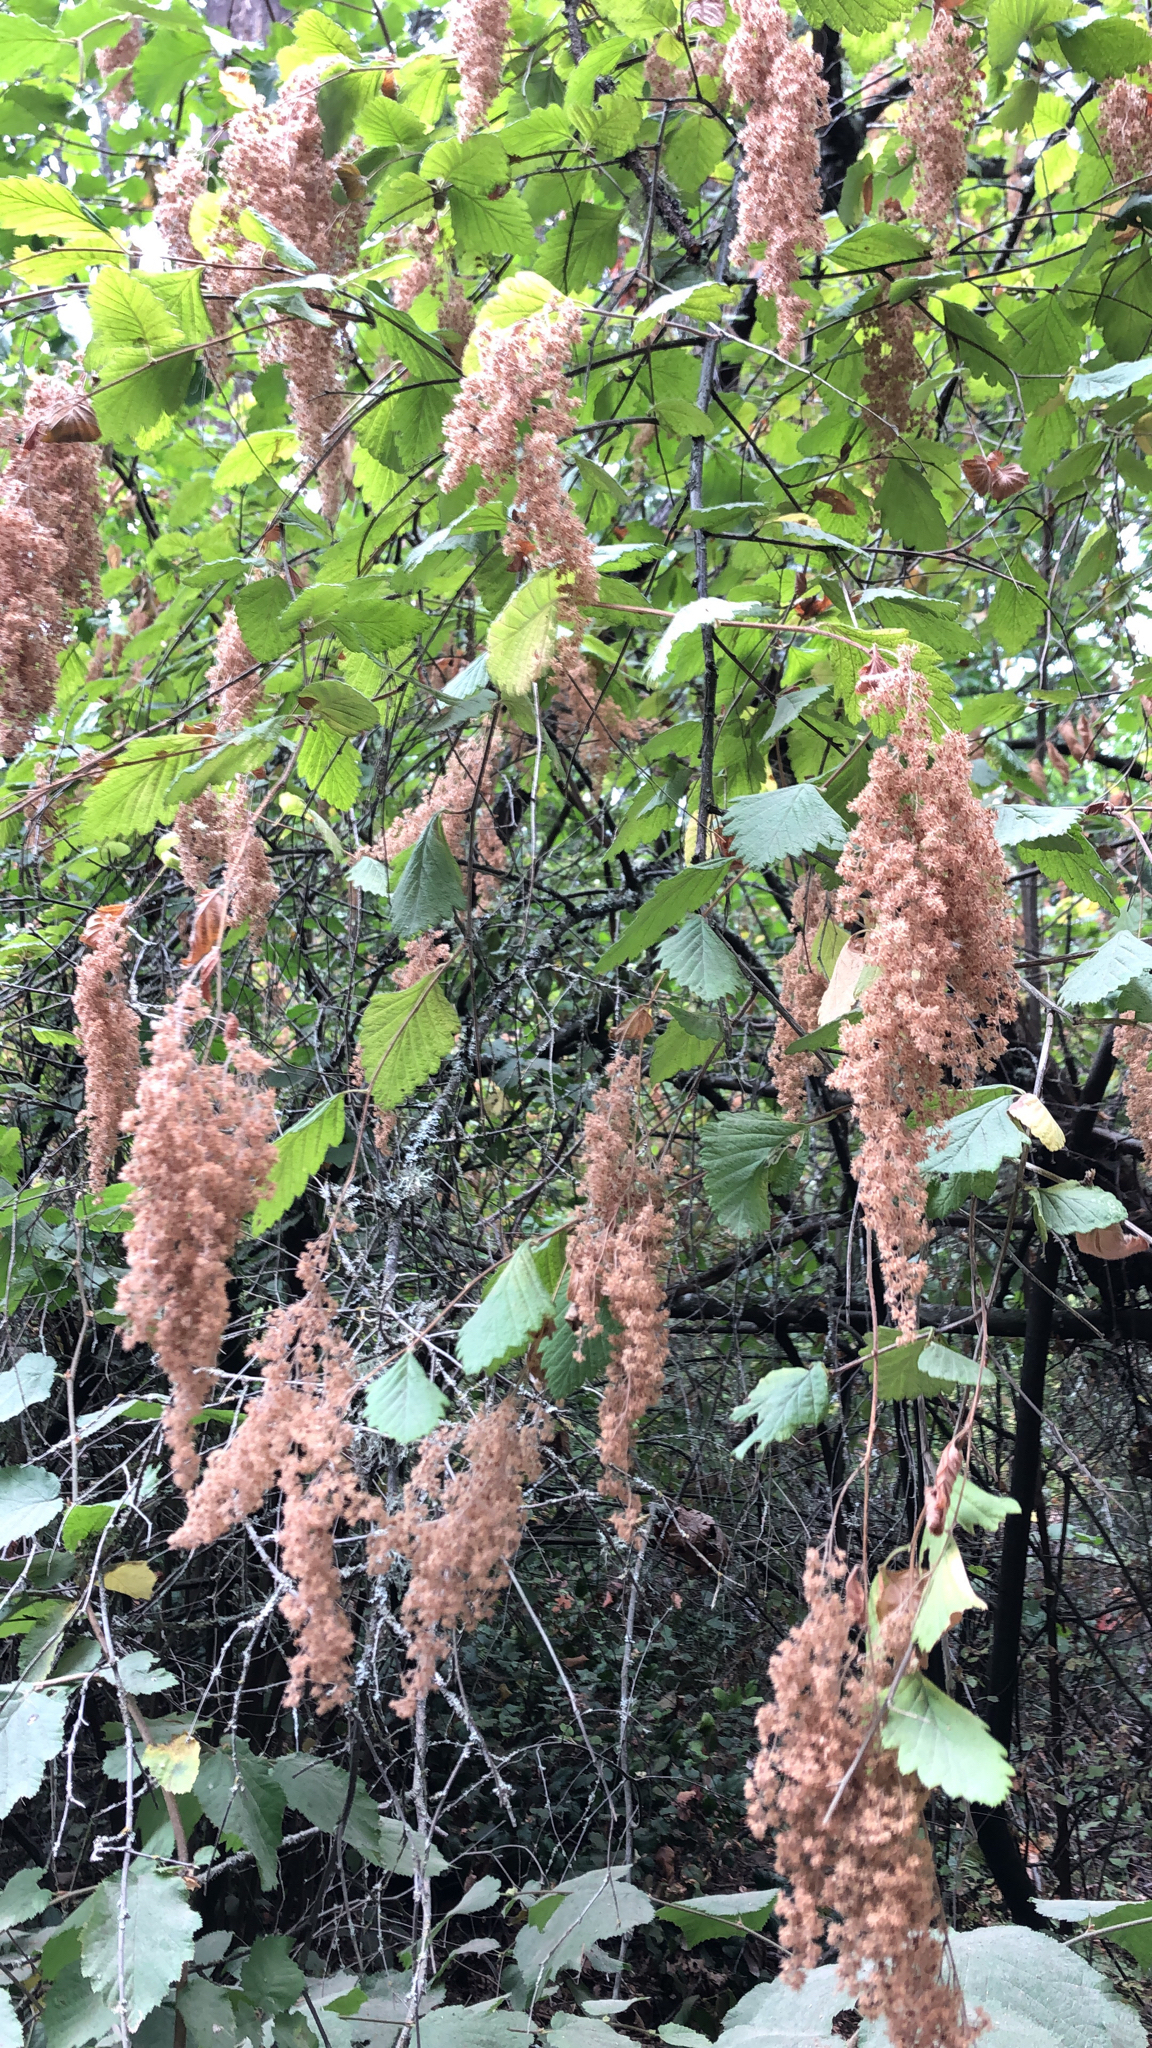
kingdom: Plantae
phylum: Tracheophyta
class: Magnoliopsida
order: Rosales
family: Rosaceae
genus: Holodiscus
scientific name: Holodiscus discolor
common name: Oceanspray
